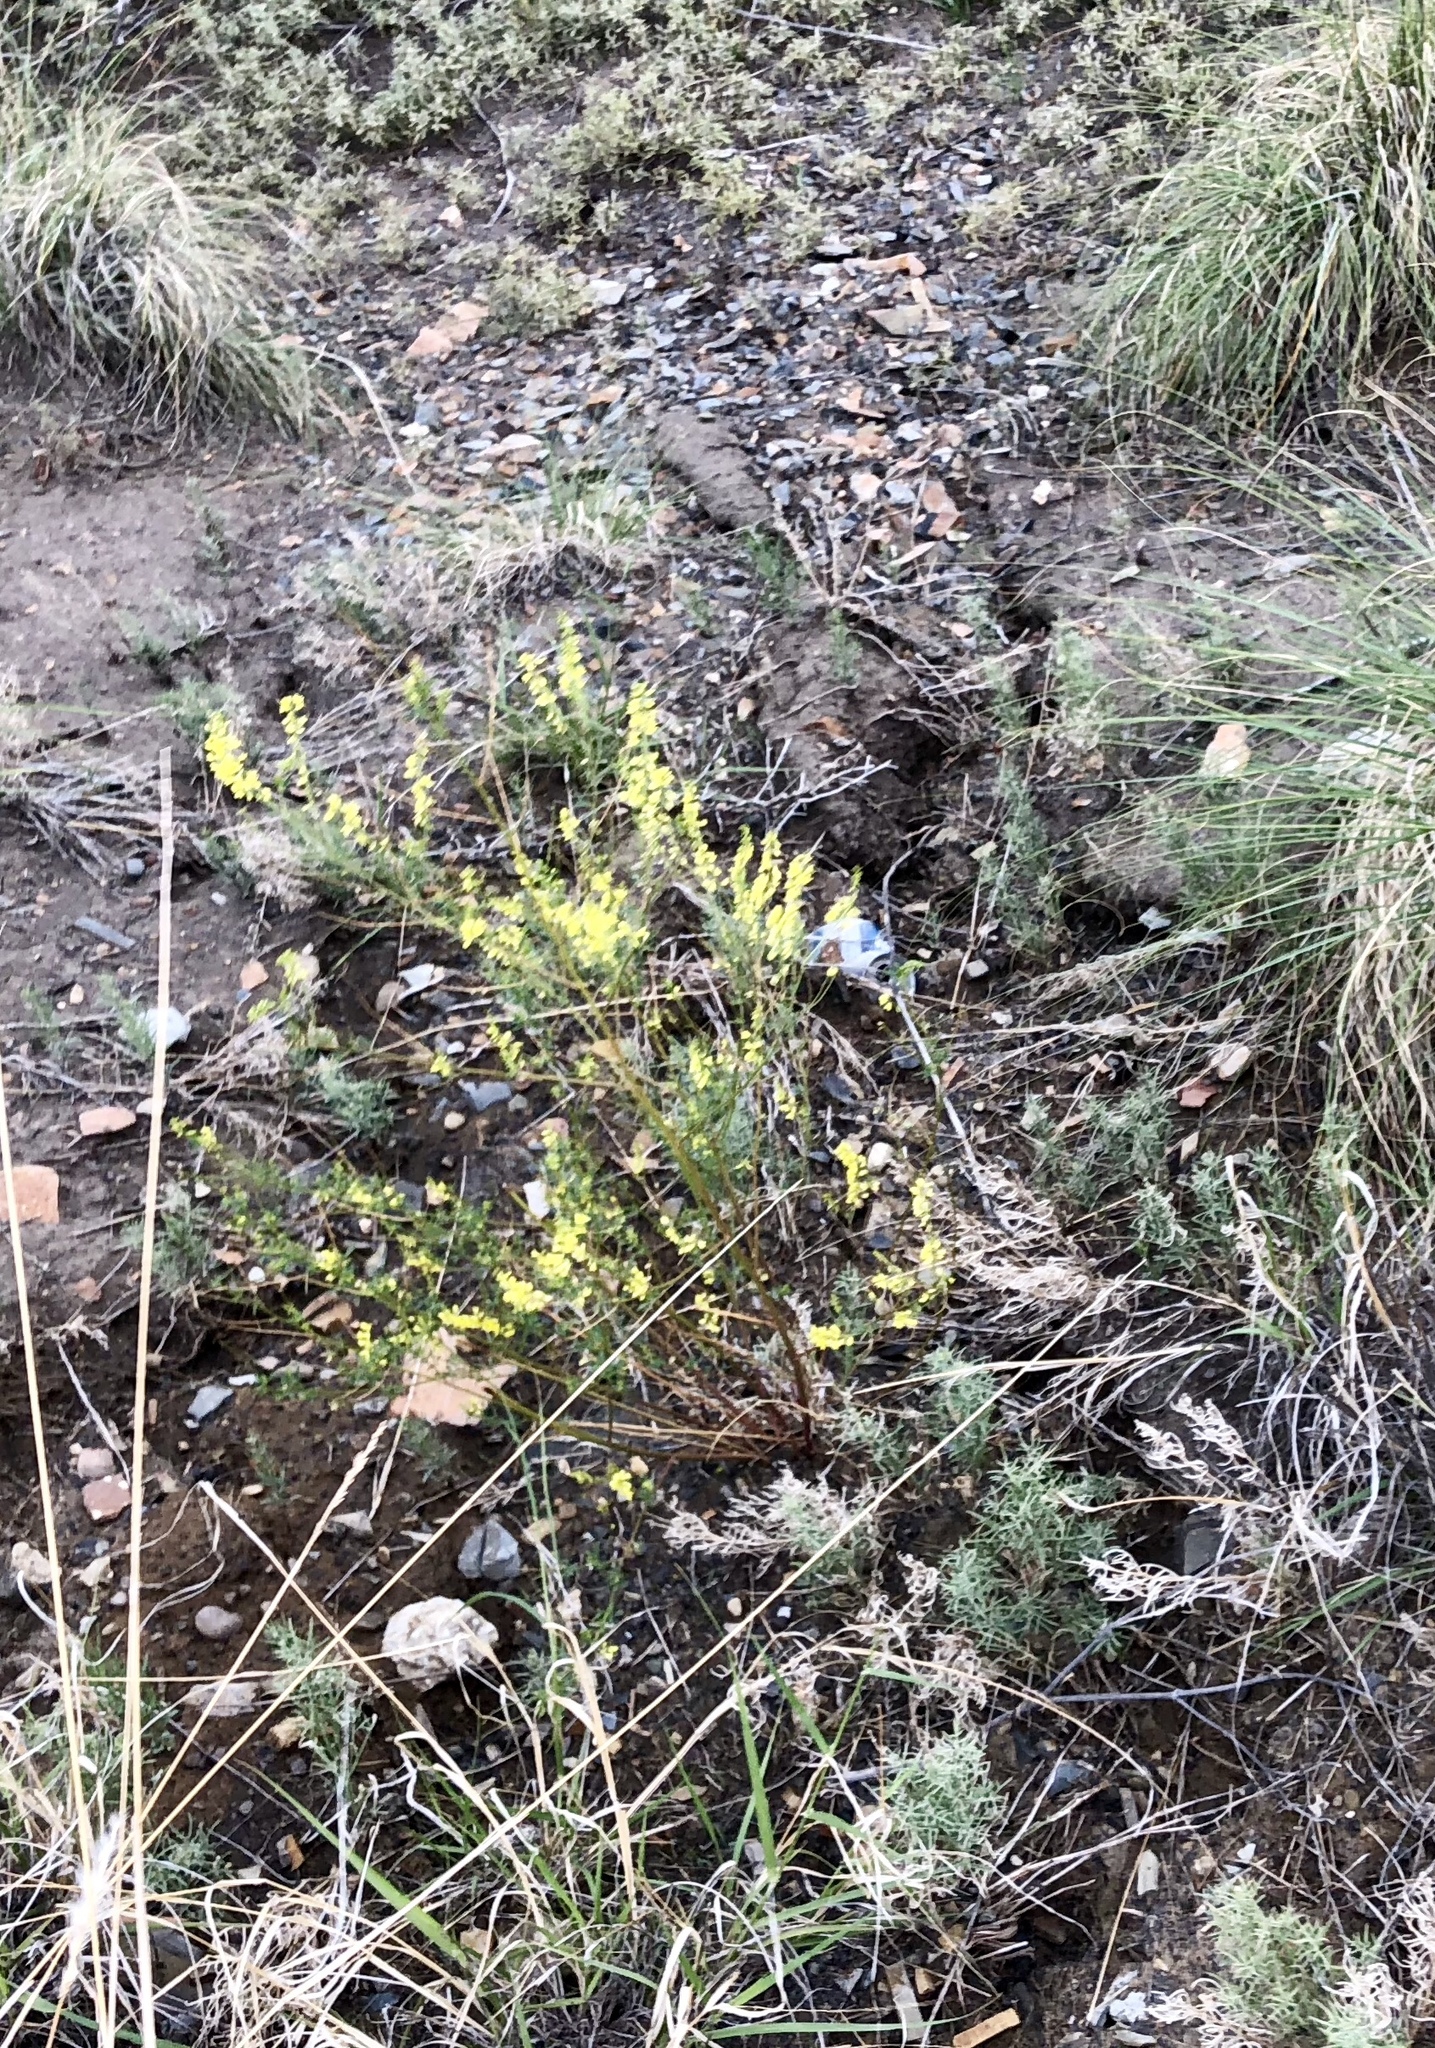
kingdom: Plantae
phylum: Tracheophyta
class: Magnoliopsida
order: Fabales
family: Fabaceae
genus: Melilotus
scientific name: Melilotus officinalis
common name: Sweetclover
